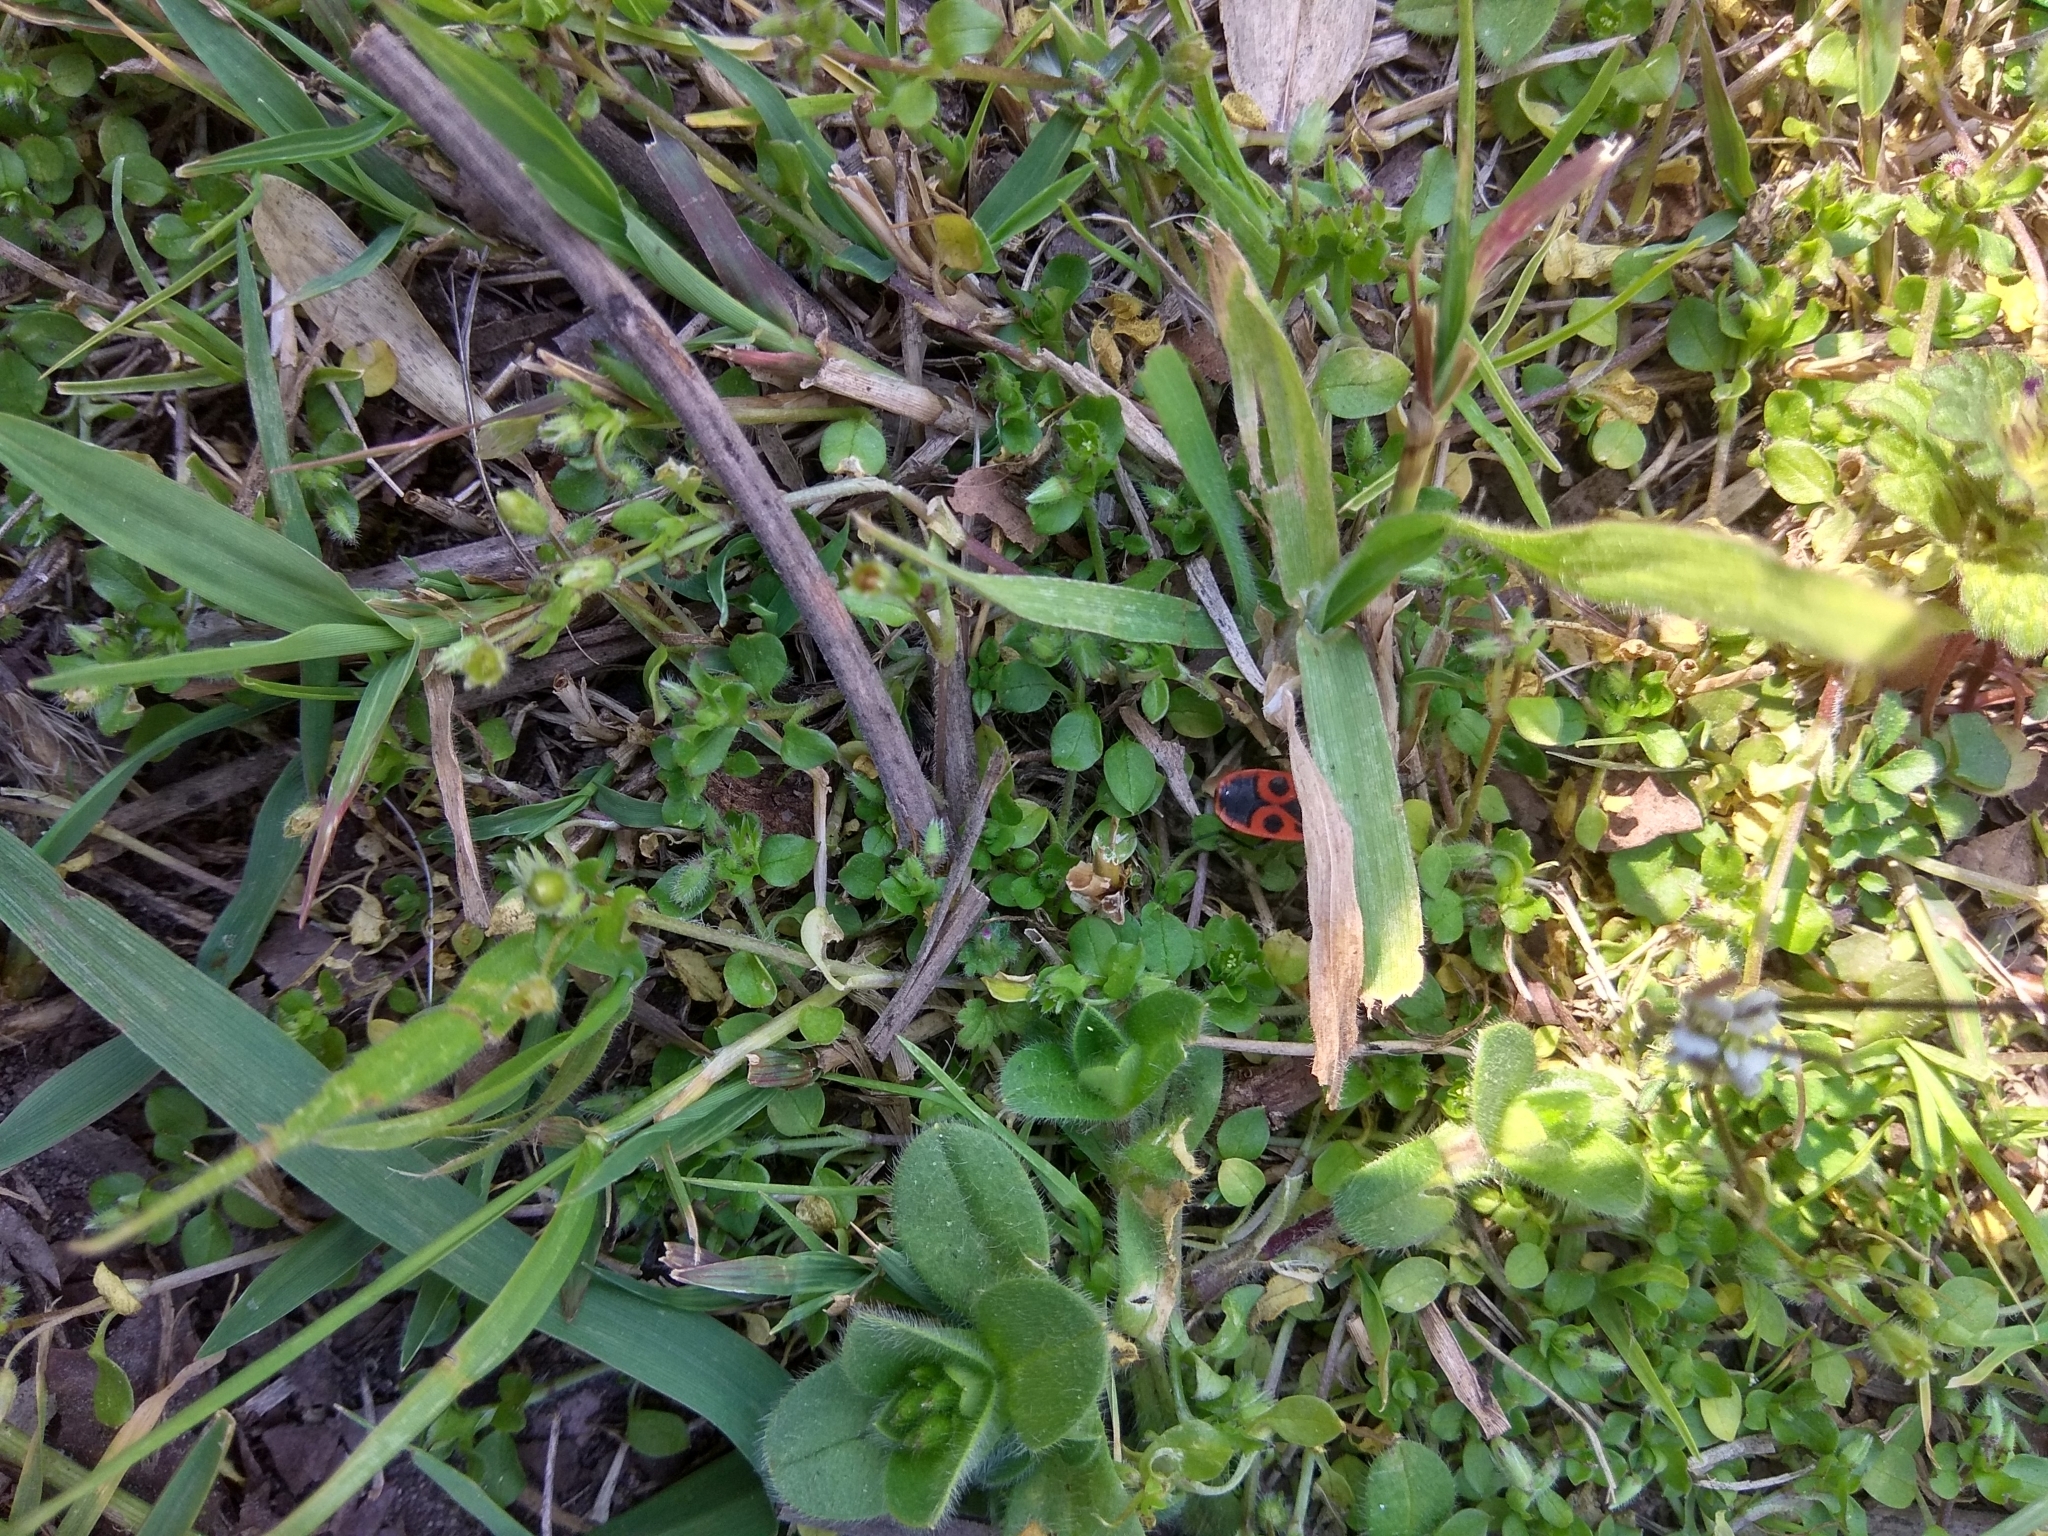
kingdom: Animalia
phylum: Arthropoda
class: Insecta
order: Hemiptera
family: Pyrrhocoridae
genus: Pyrrhocoris
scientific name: Pyrrhocoris apterus
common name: Firebug
